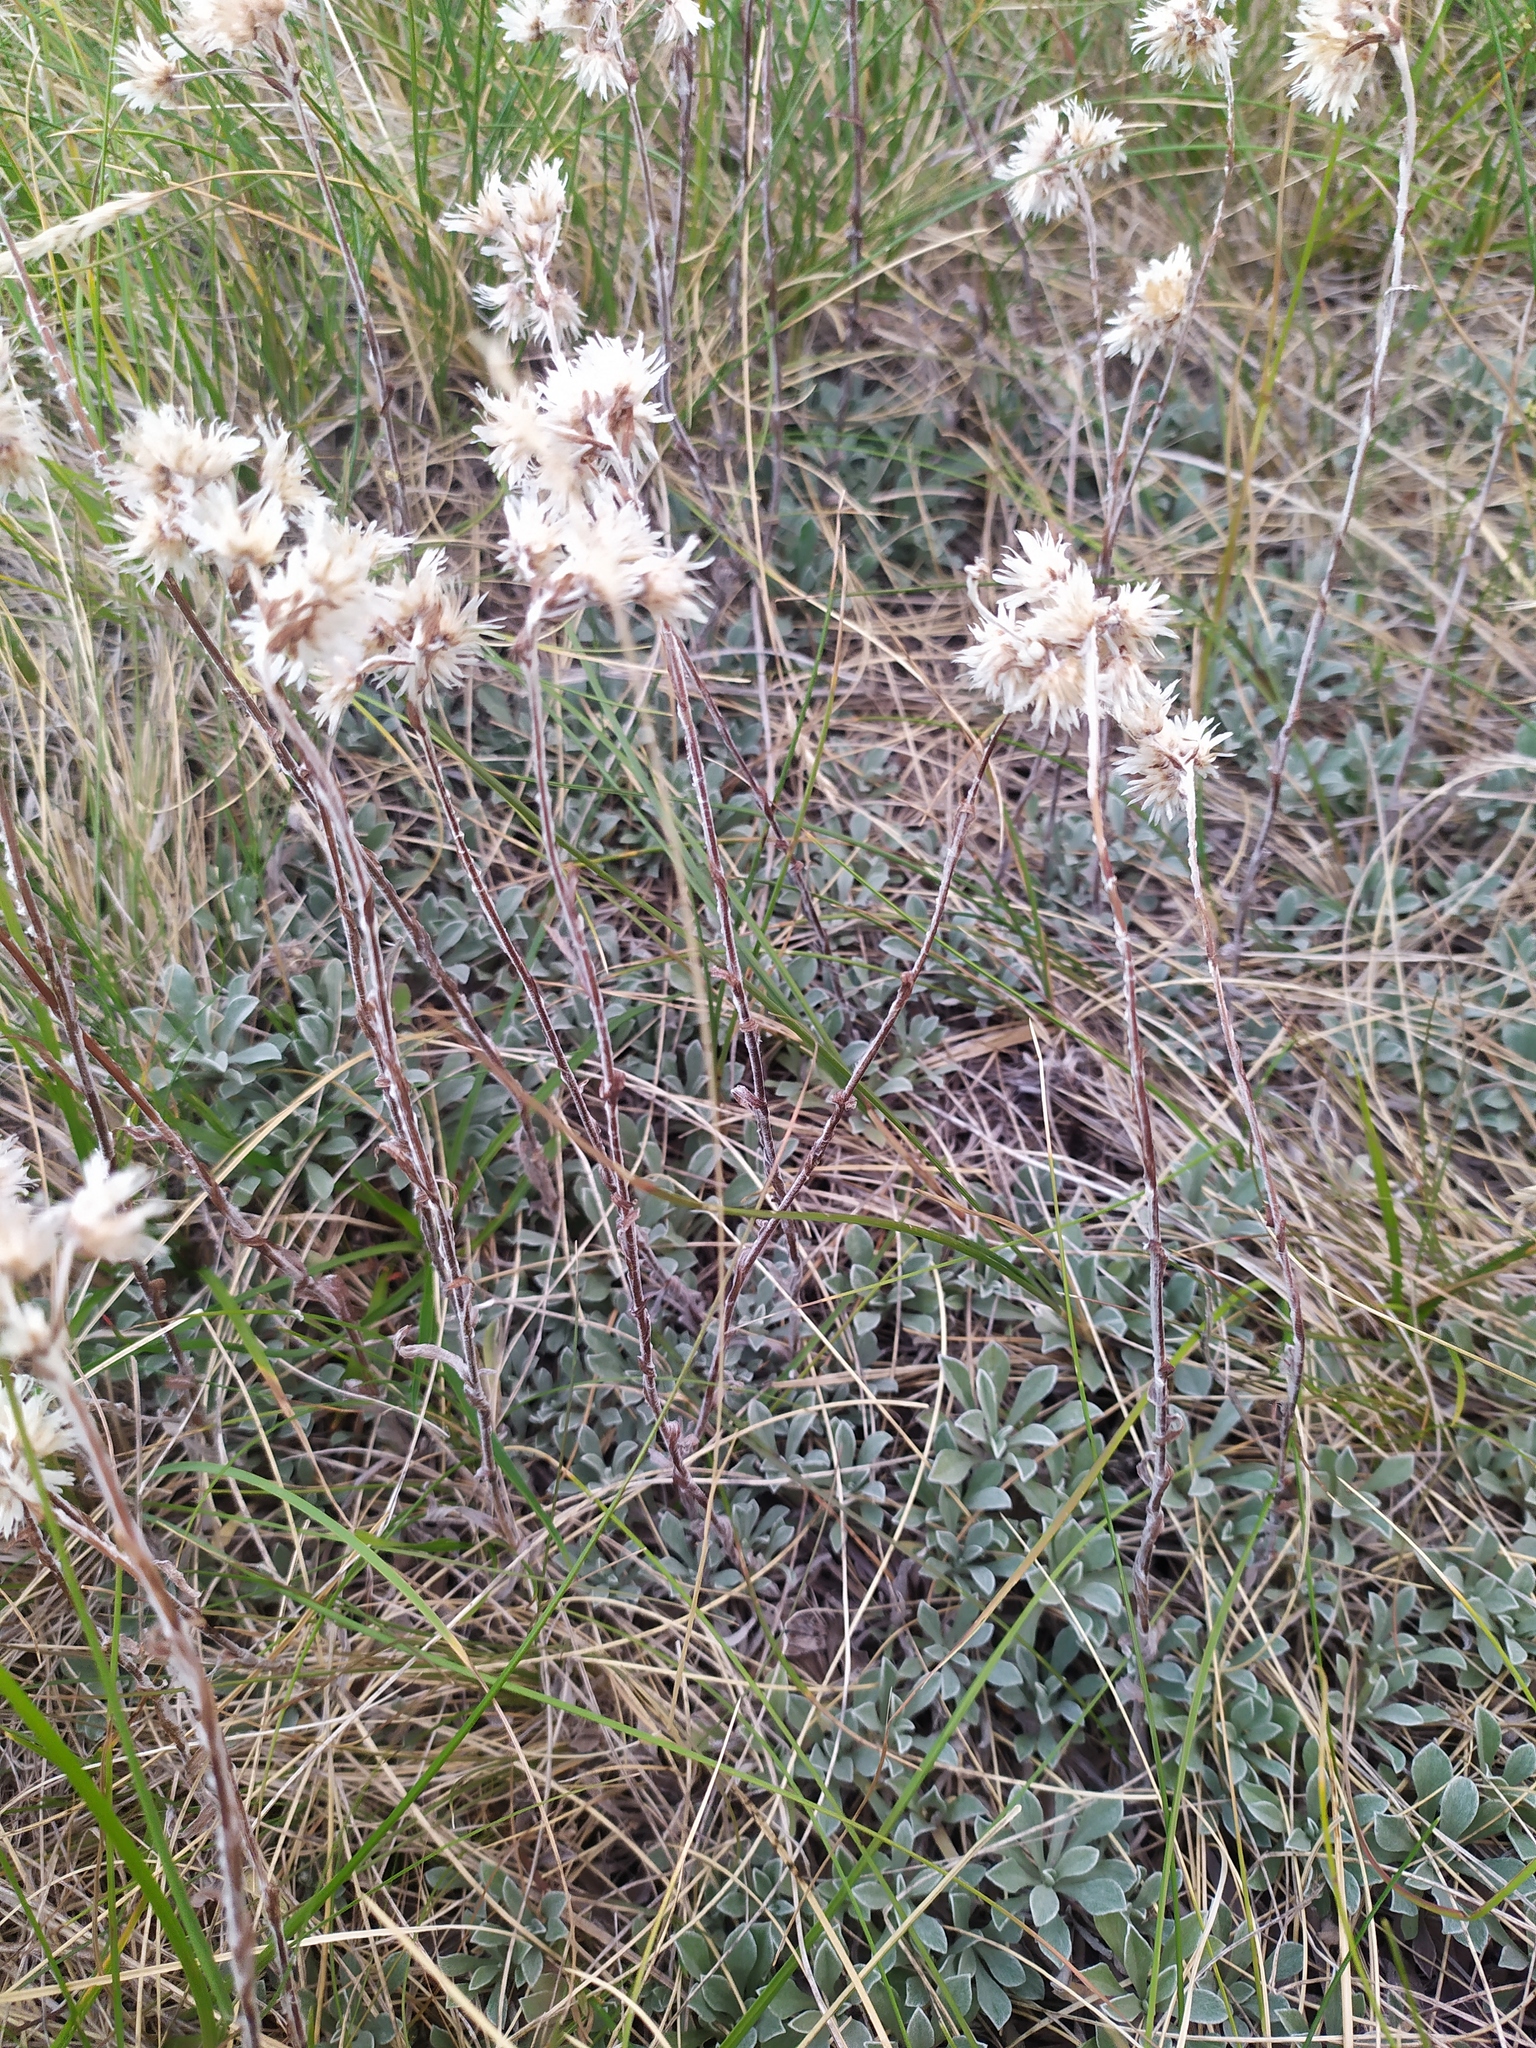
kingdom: Plantae
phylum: Tracheophyta
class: Magnoliopsida
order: Asterales
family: Asteraceae
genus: Antennaria
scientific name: Antennaria dioica
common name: Mountain everlasting
